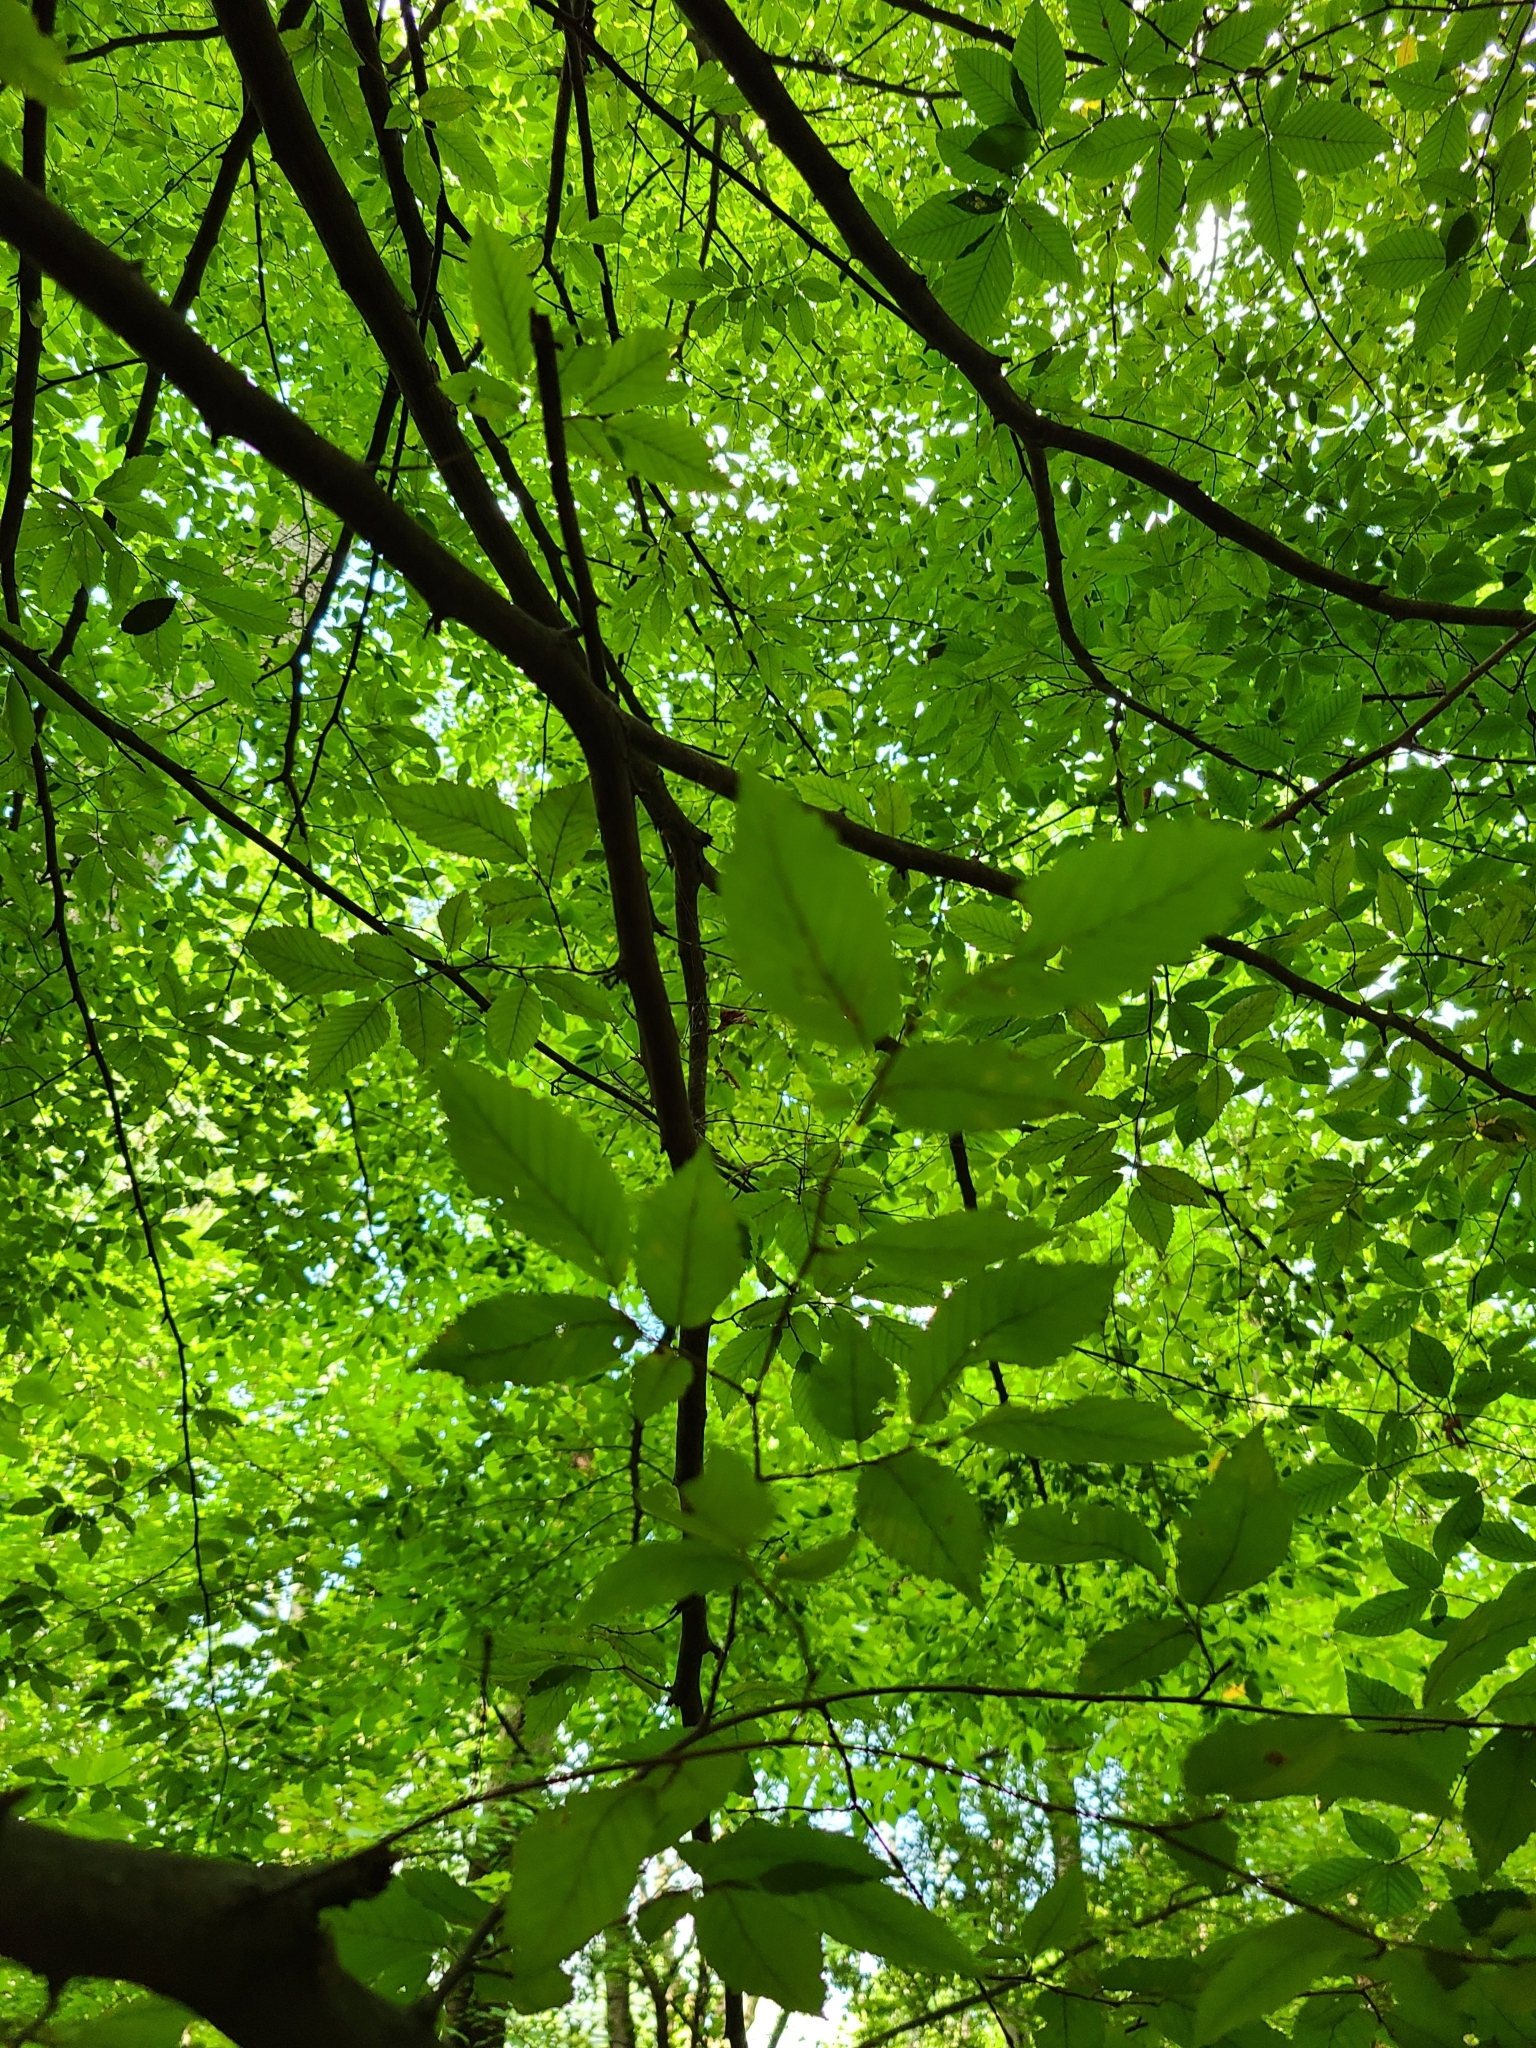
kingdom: Plantae
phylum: Tracheophyta
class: Magnoliopsida
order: Fagales
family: Betulaceae
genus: Carpinus
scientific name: Carpinus caroliniana
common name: American hornbeam
